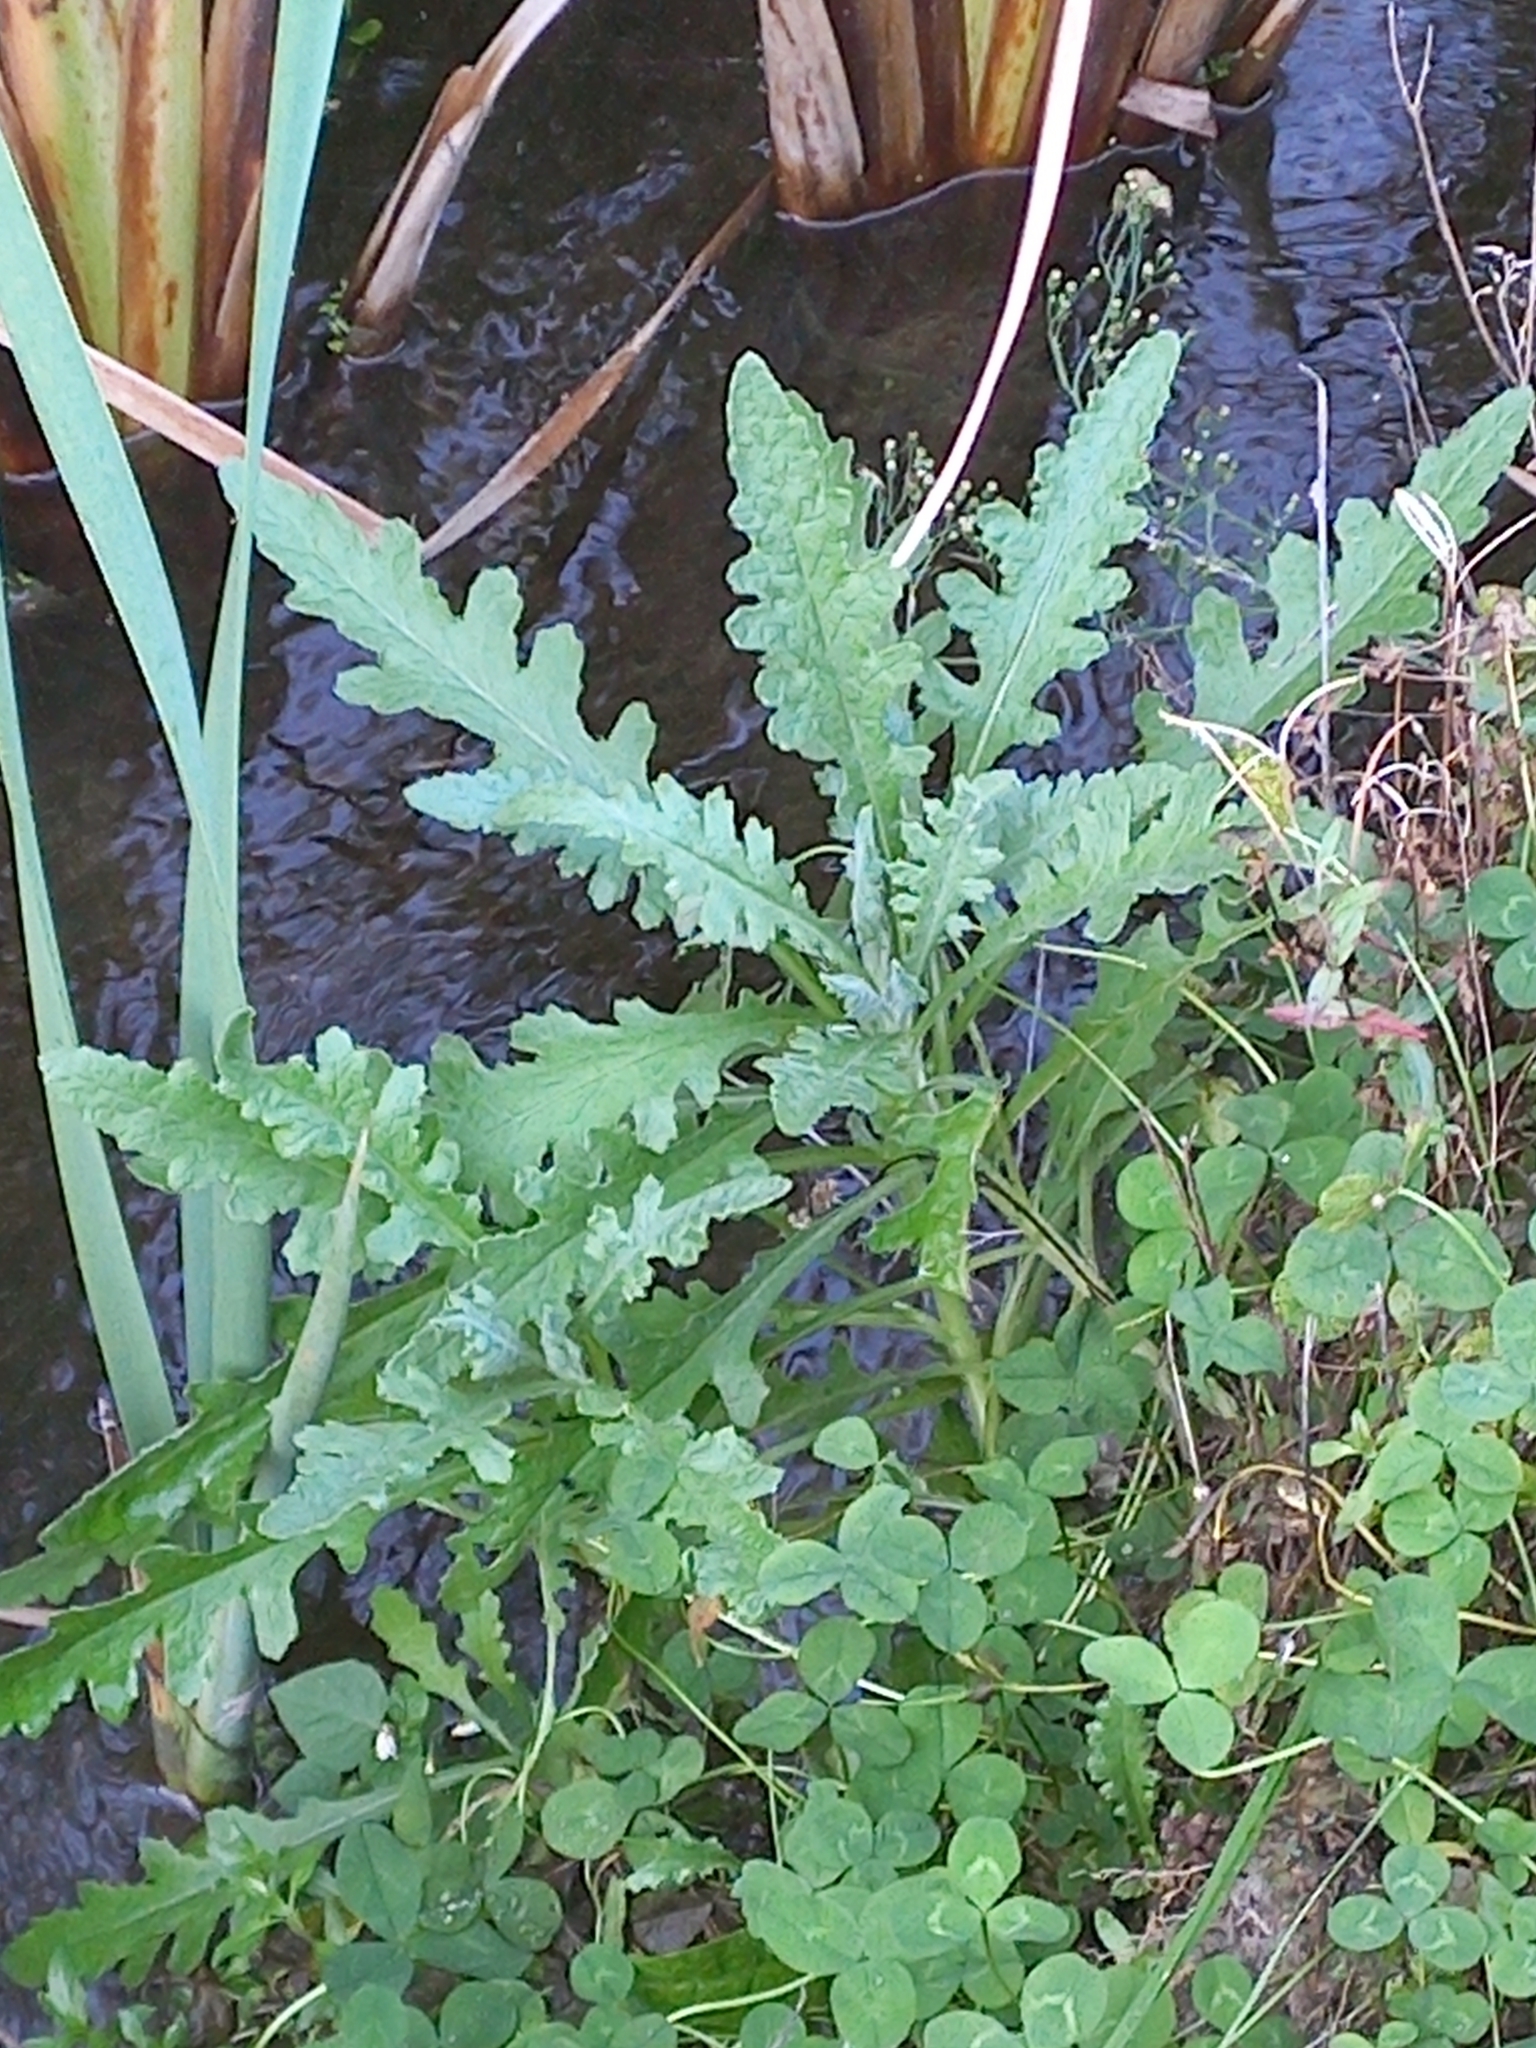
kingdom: Plantae
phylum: Tracheophyta
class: Magnoliopsida
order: Asterales
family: Asteraceae
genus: Senecio
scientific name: Senecio glomeratus
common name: Cutleaf burnweed
